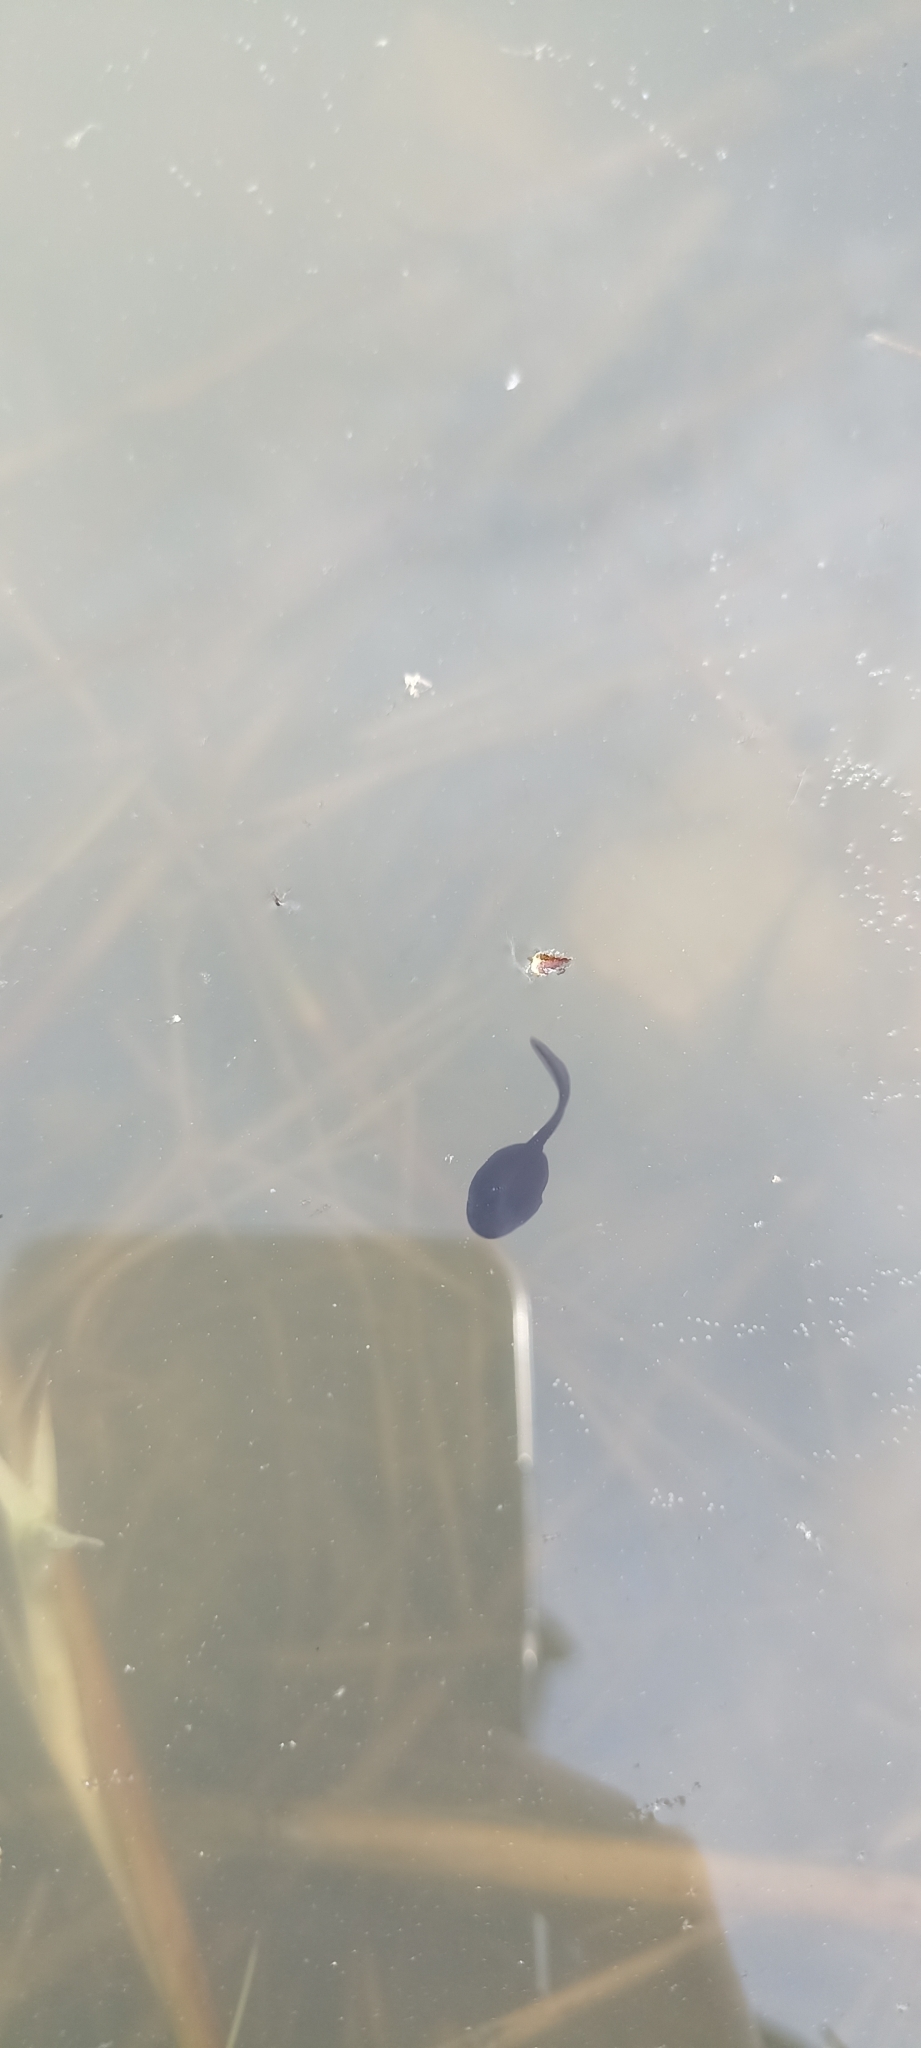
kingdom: Animalia
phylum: Chordata
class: Amphibia
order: Anura
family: Bufonidae
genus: Bufo
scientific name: Bufo spinosus
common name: Western common toad
